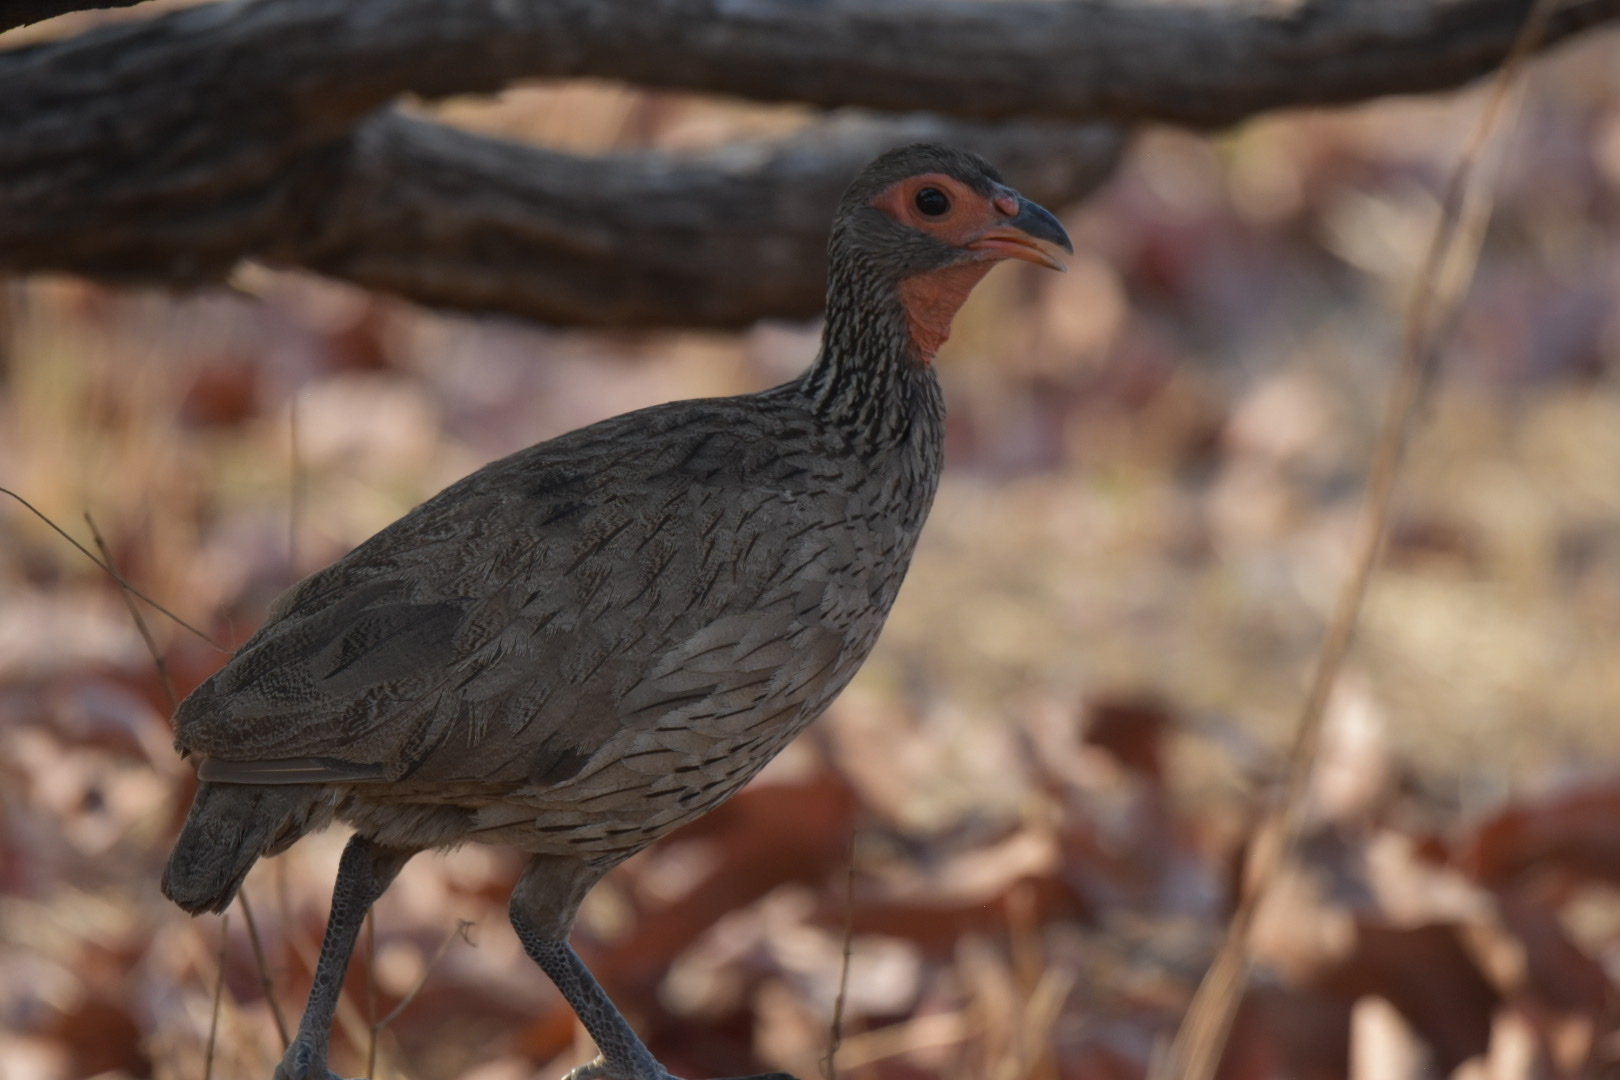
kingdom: Animalia
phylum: Chordata
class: Aves
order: Galliformes
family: Phasianidae
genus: Pternistis
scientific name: Pternistis swainsonii
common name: Swainson's spurfowl
